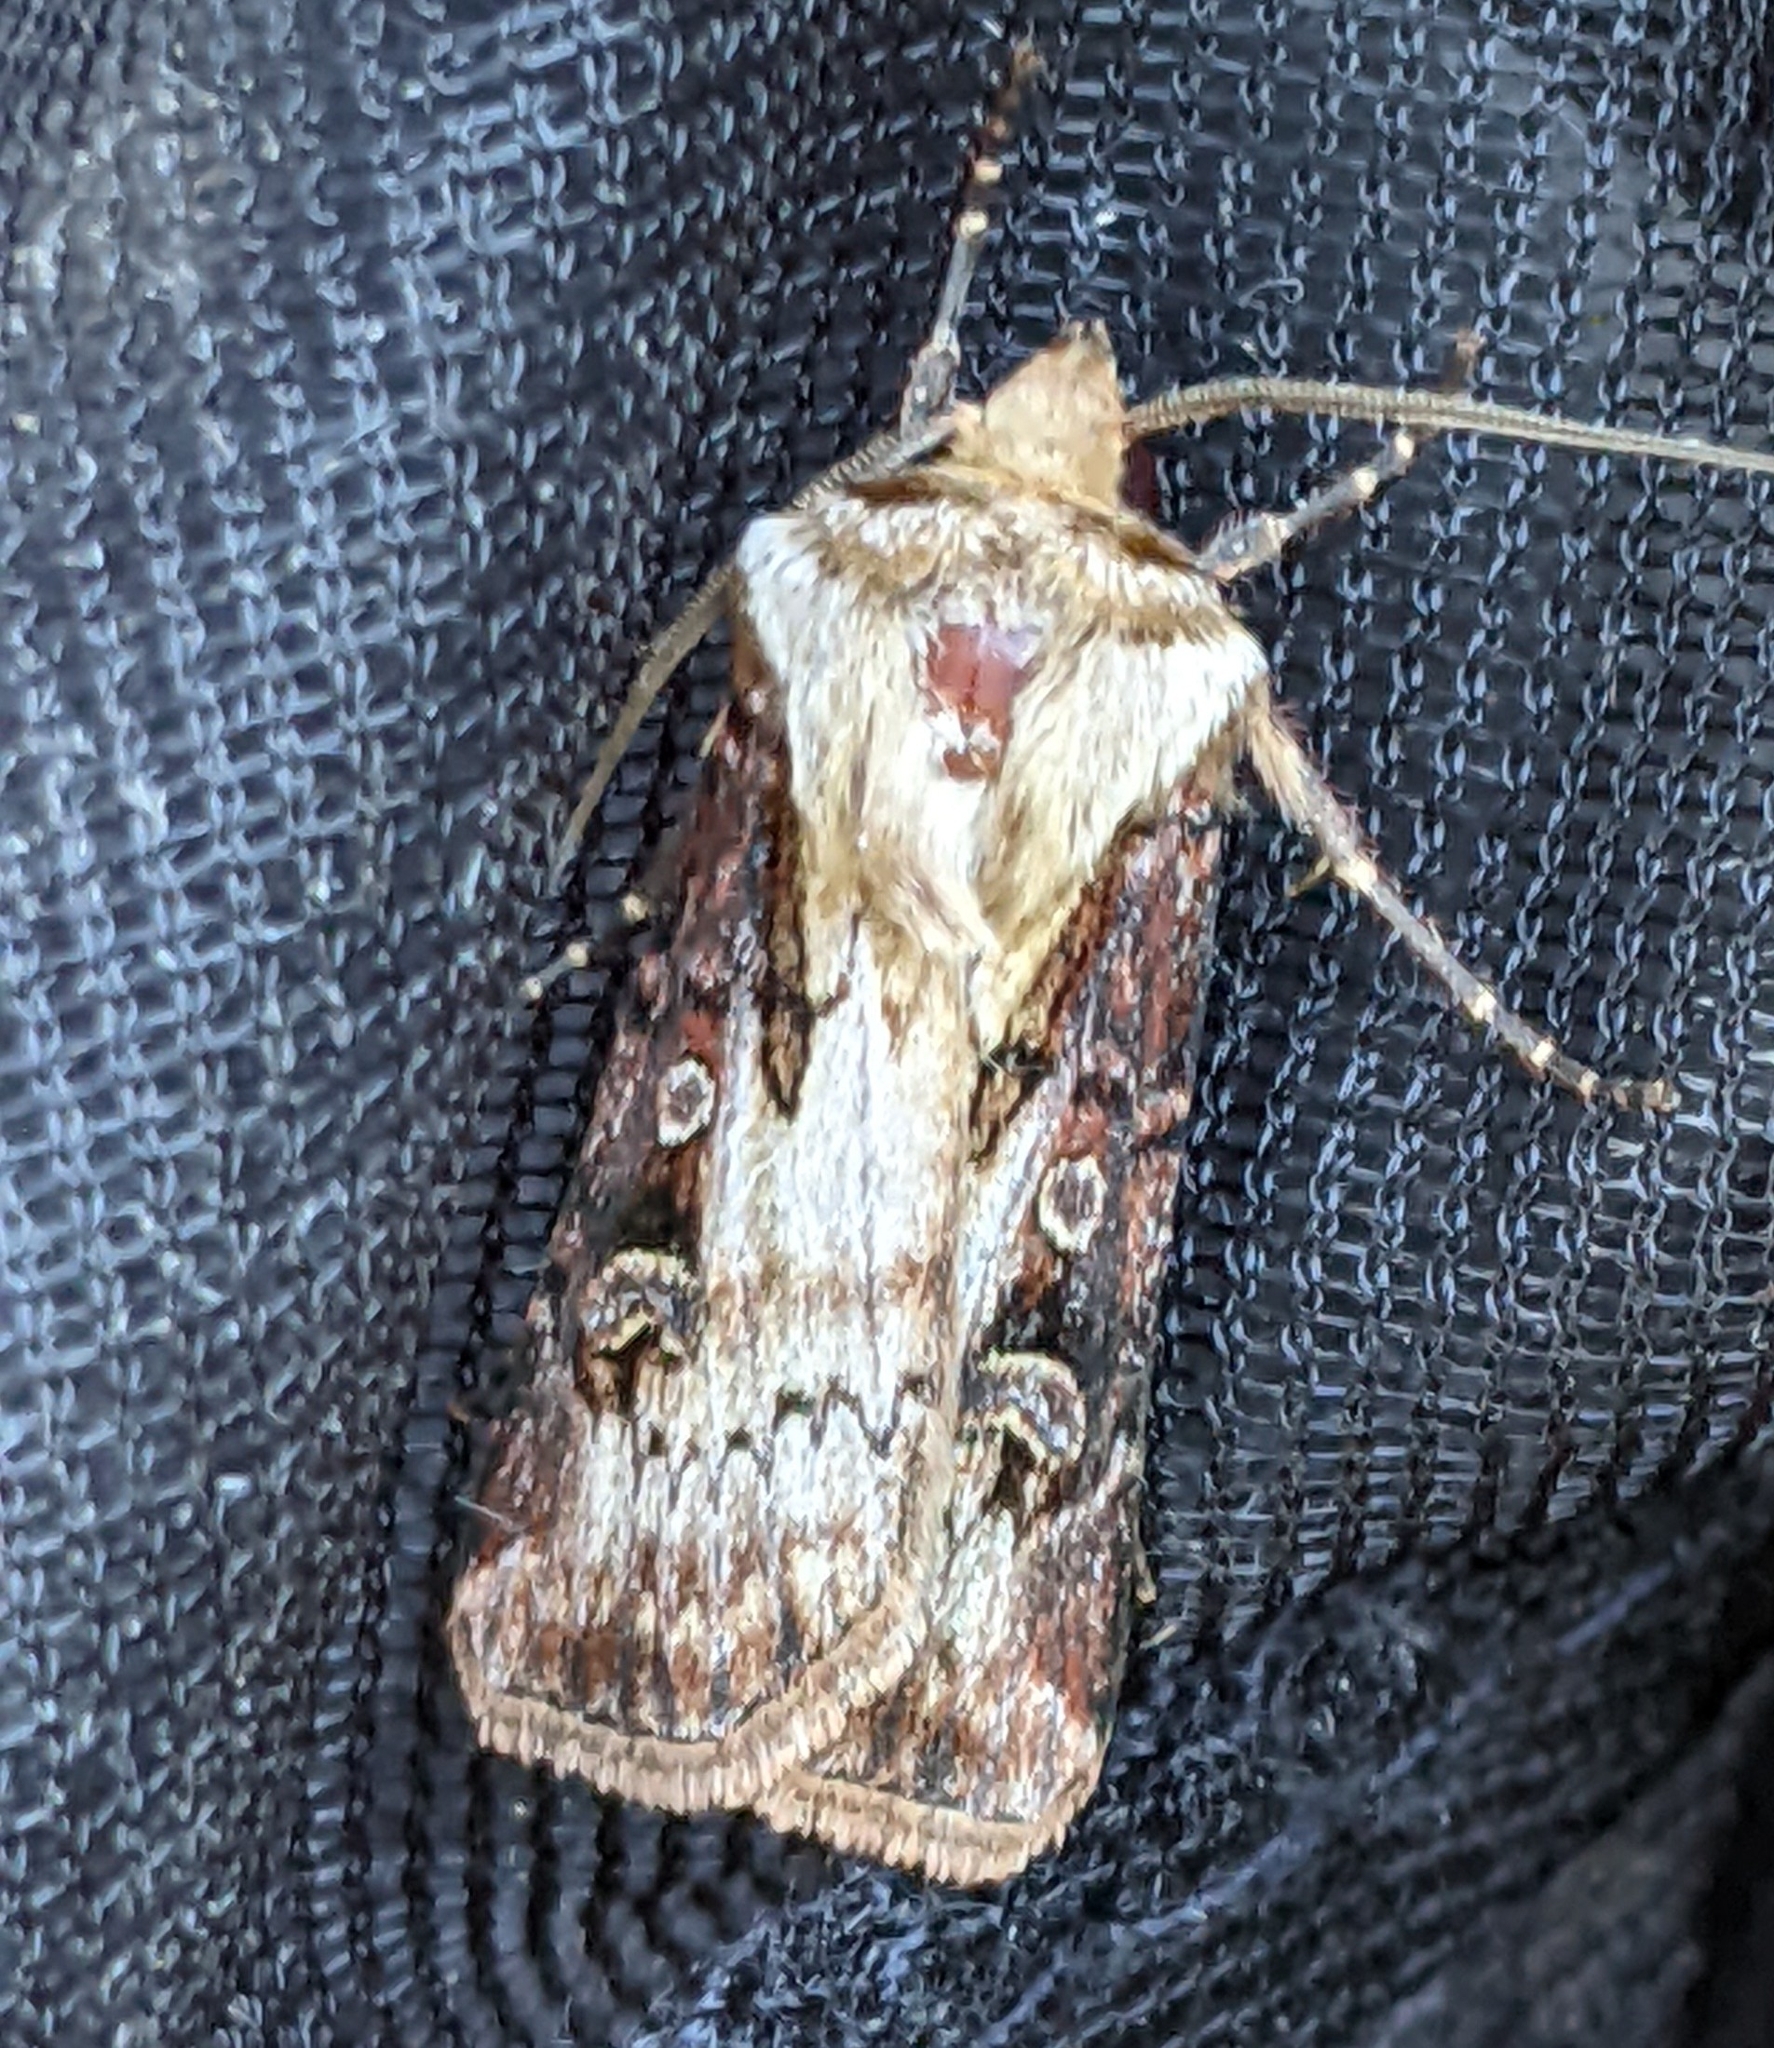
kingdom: Animalia
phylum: Arthropoda
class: Insecta
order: Lepidoptera
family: Noctuidae
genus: Agrotis
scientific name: Agrotis vancouverensis
